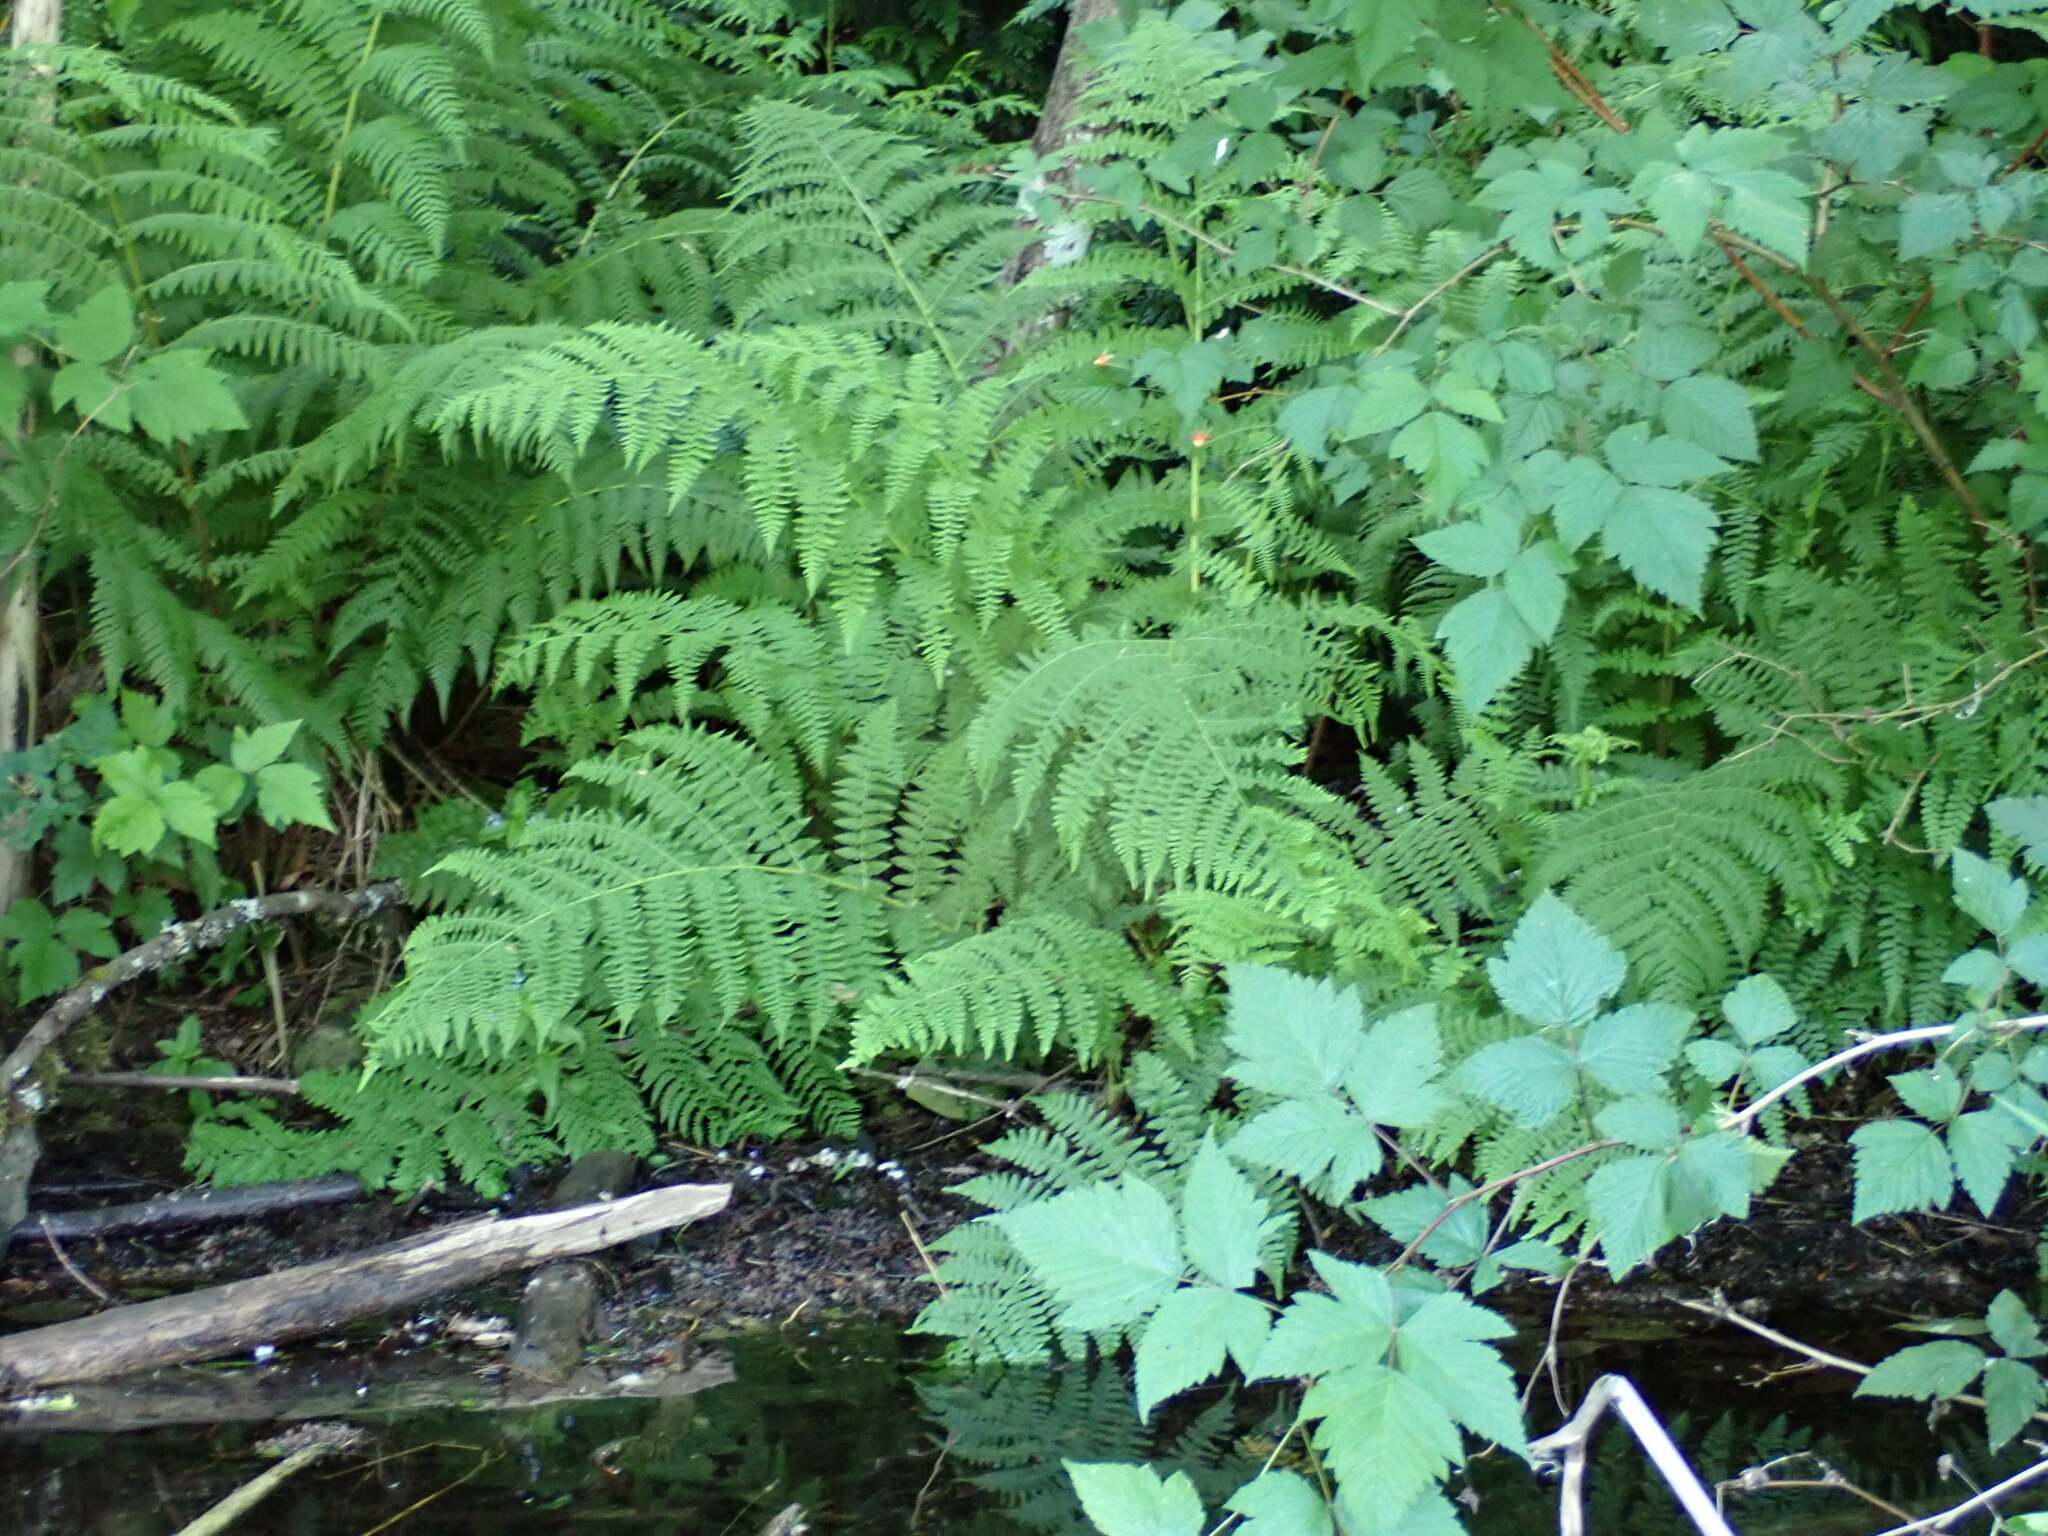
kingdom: Plantae
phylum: Tracheophyta
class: Polypodiopsida
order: Polypodiales
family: Athyriaceae
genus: Athyrium
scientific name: Athyrium cyclosorum
